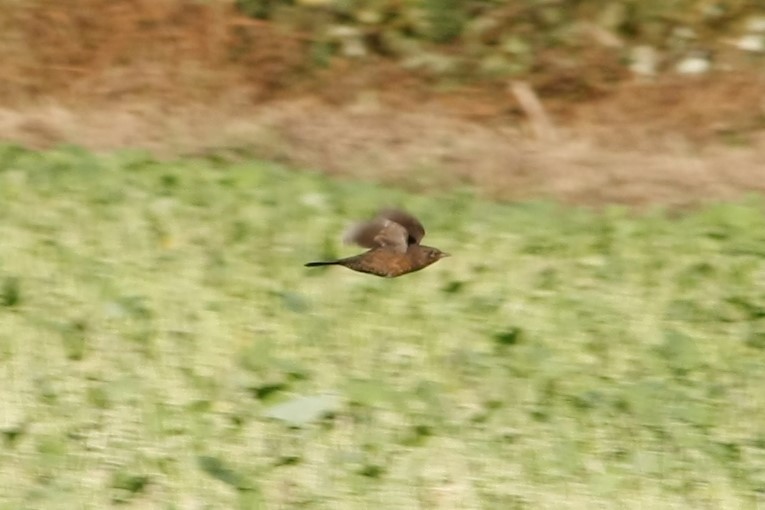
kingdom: Animalia
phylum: Chordata
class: Aves
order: Passeriformes
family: Turdidae
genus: Turdus
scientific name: Turdus merula
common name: Common blackbird
